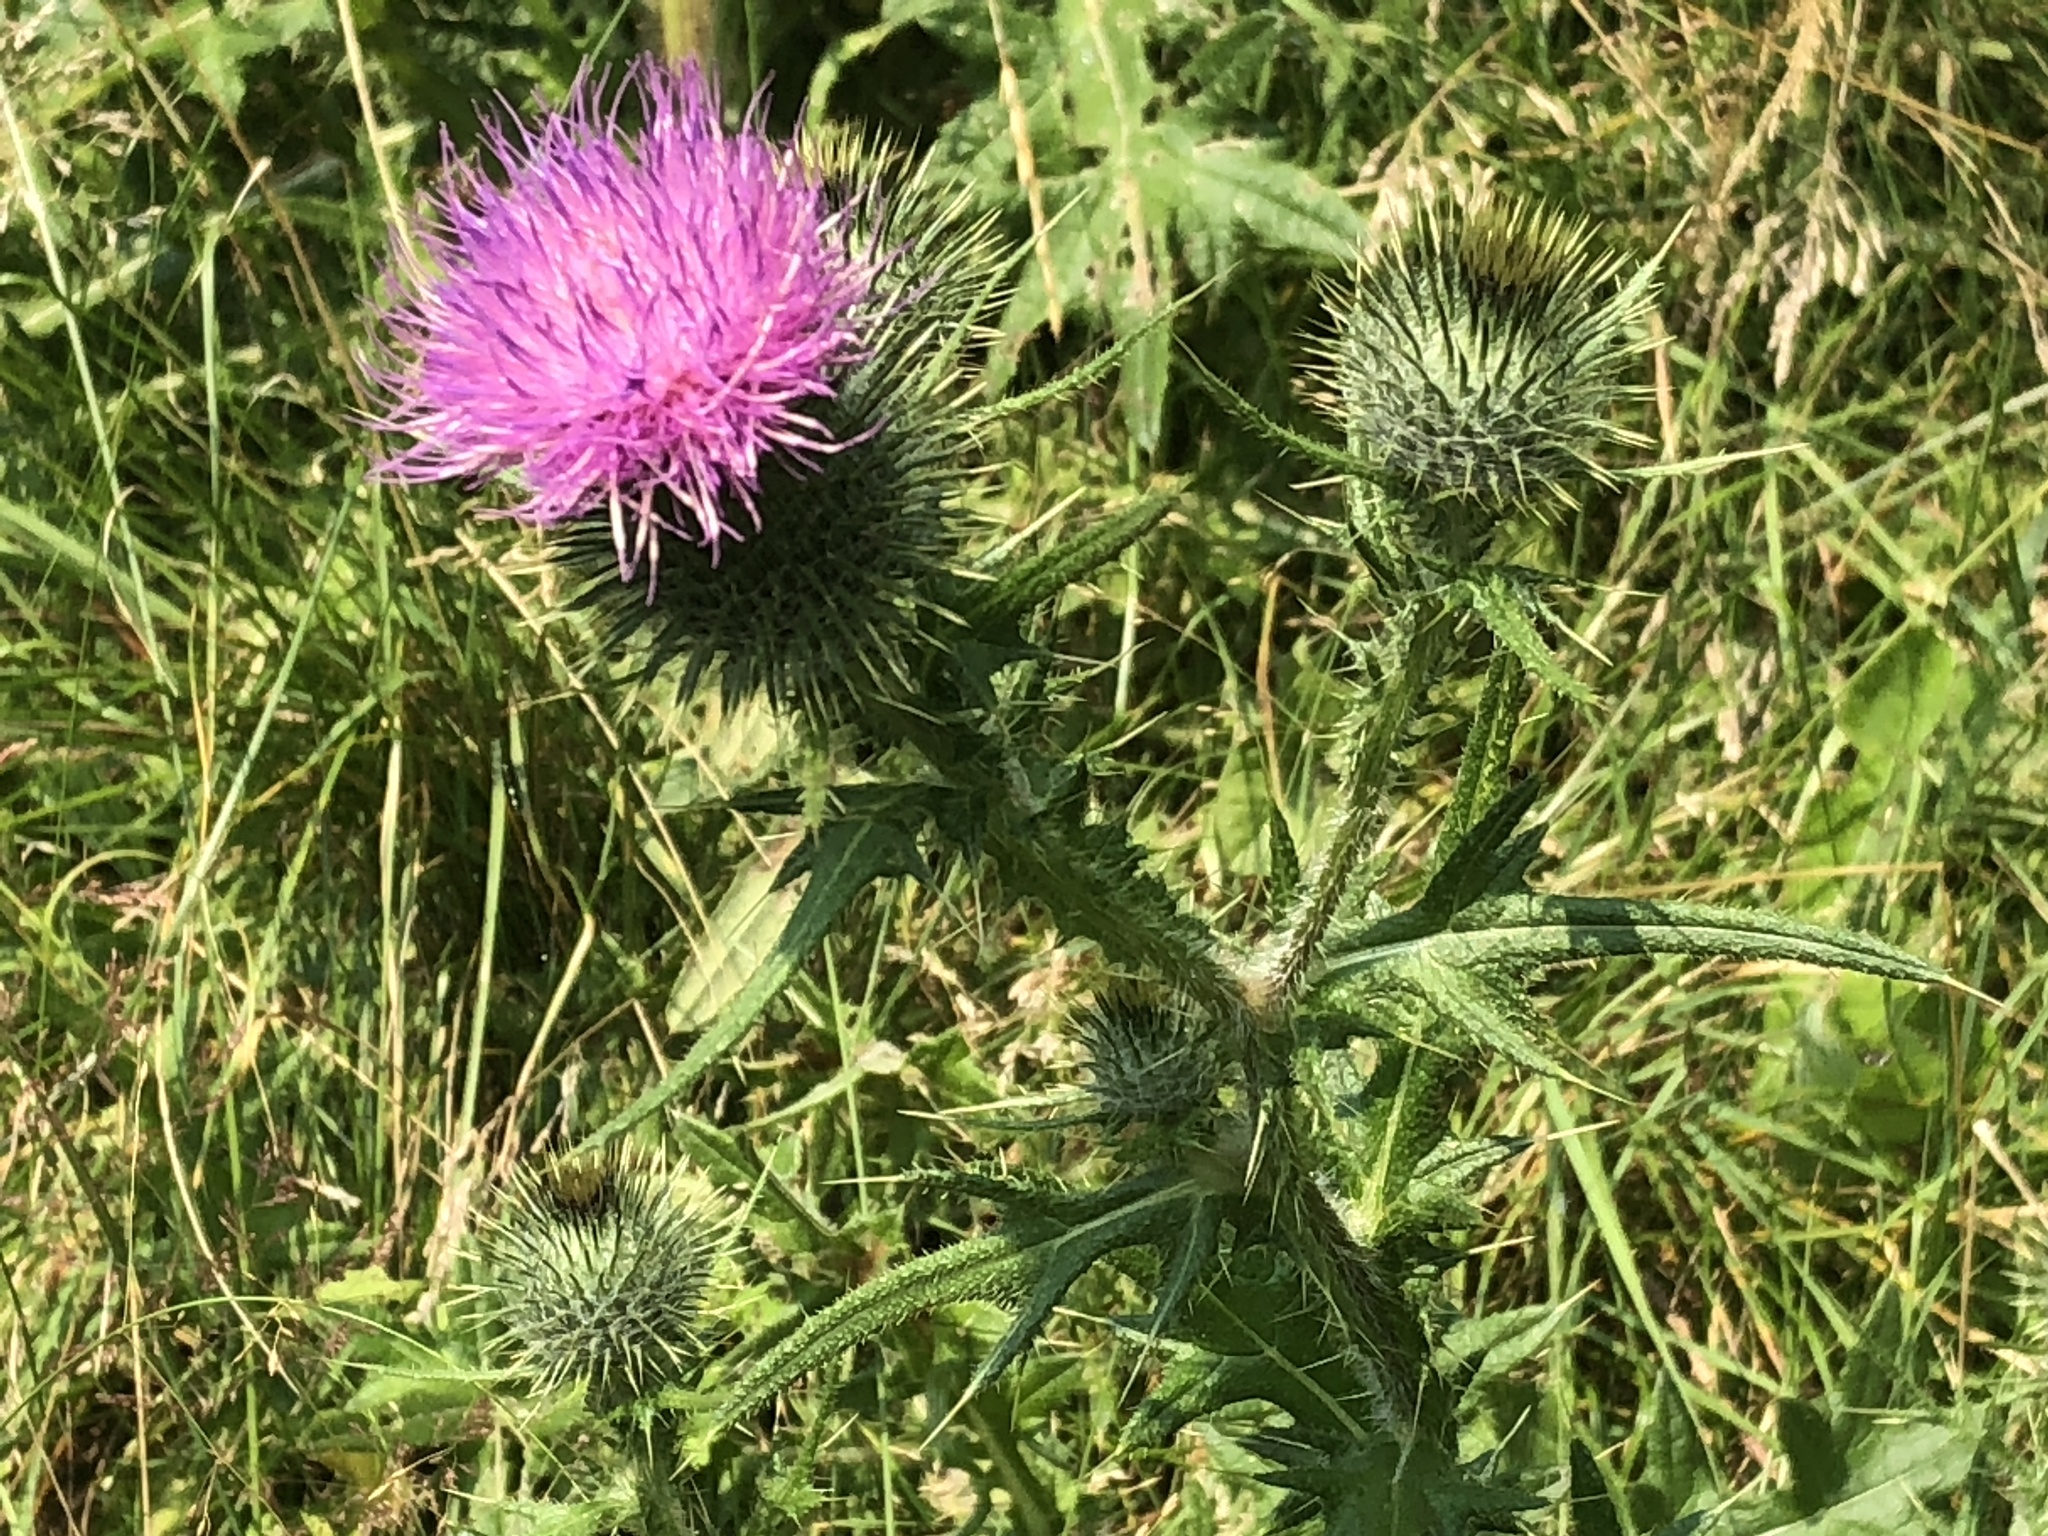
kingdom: Plantae
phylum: Tracheophyta
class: Magnoliopsida
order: Asterales
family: Asteraceae
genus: Cirsium
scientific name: Cirsium vulgare
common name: Bull thistle
